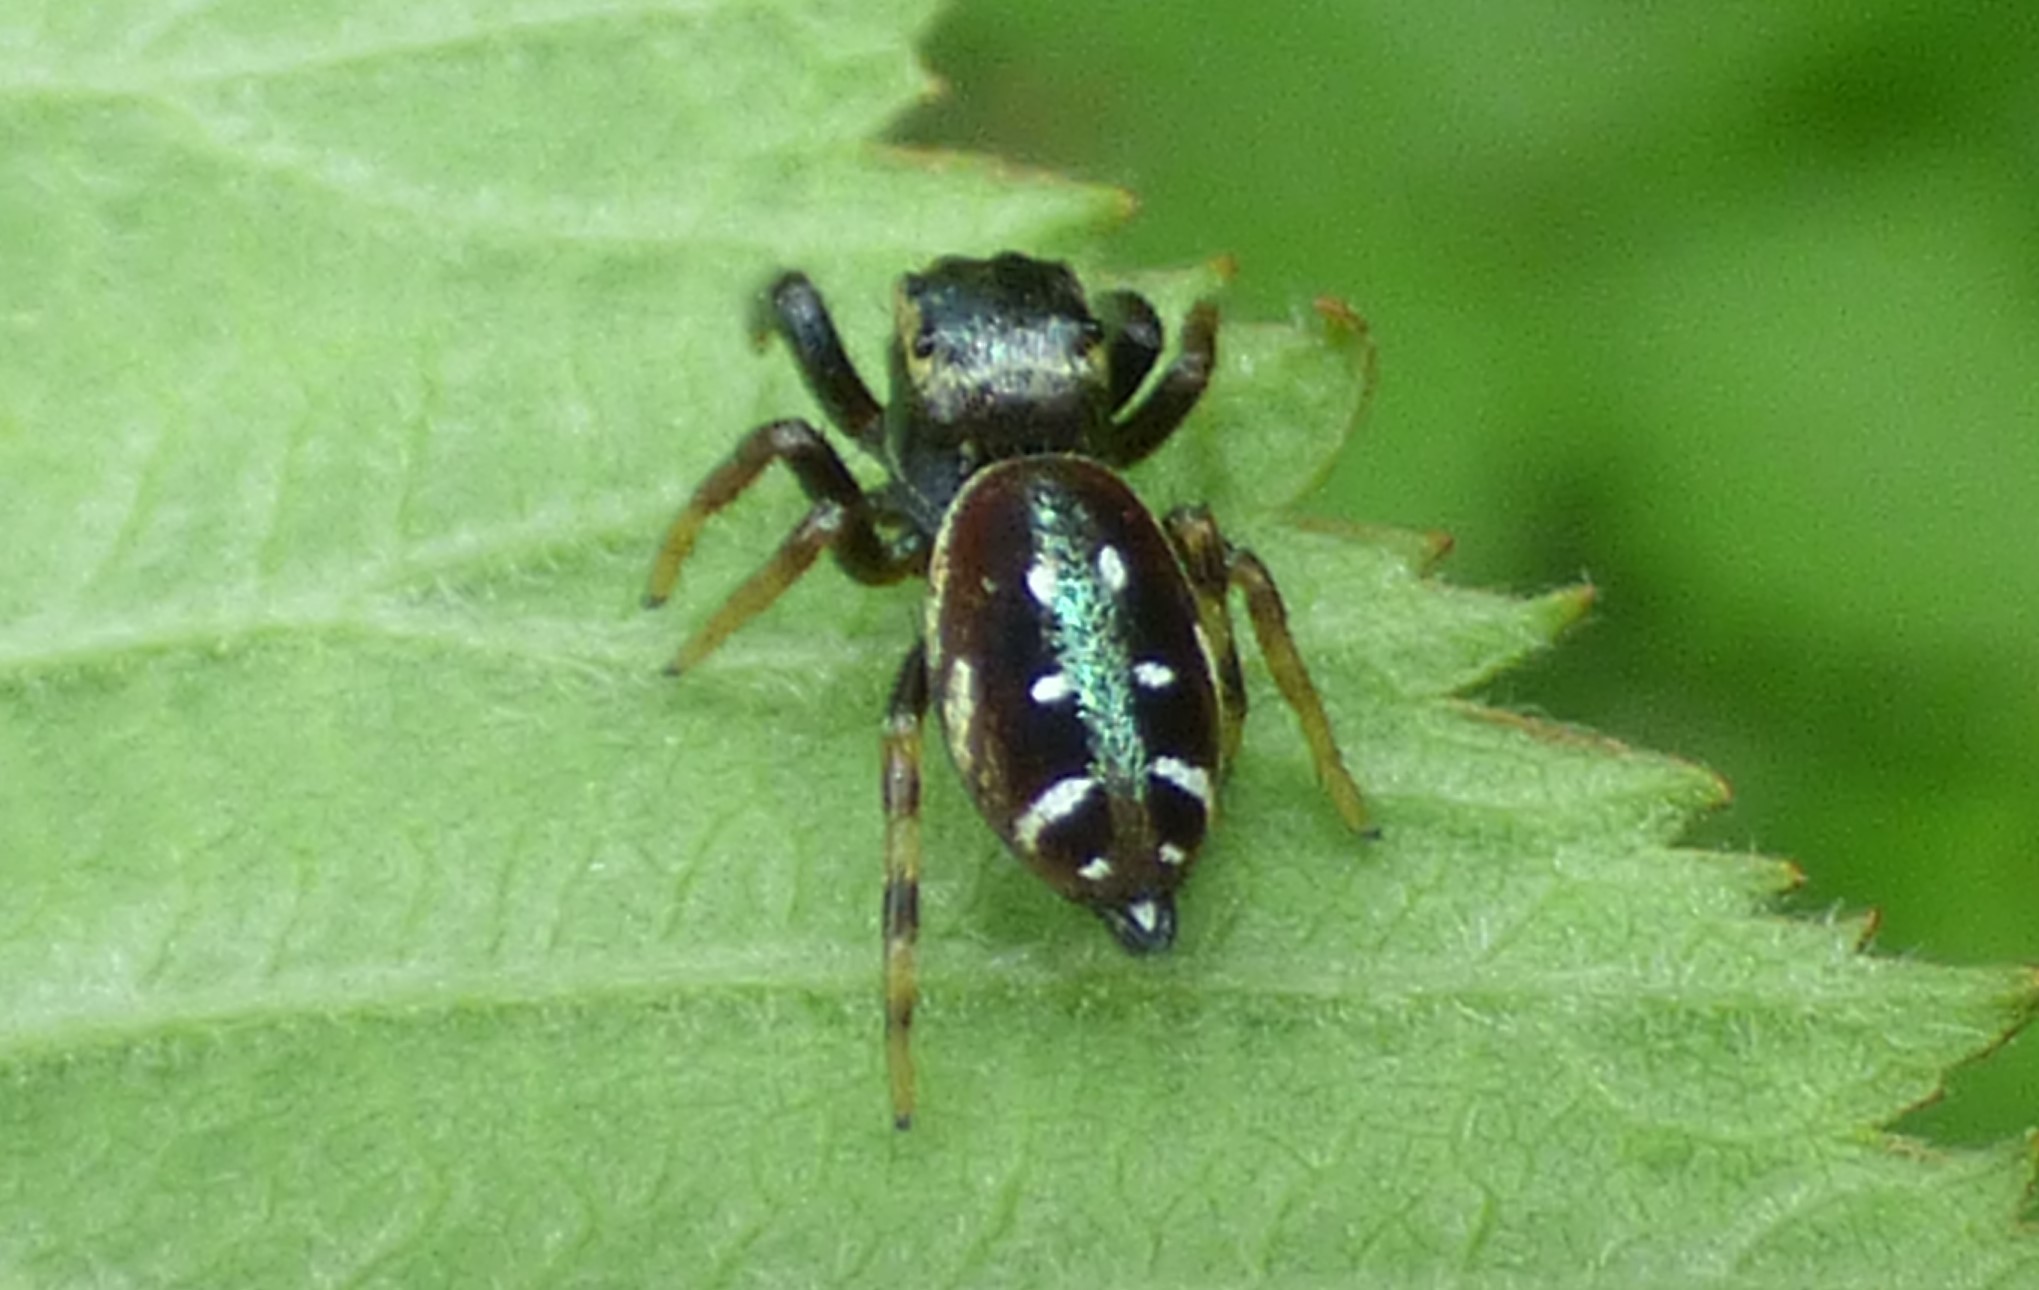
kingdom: Animalia
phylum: Arthropoda
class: Arachnida
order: Araneae
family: Salticidae
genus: Paraphidippus
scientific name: Paraphidippus aurantius
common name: Jumping spiders
